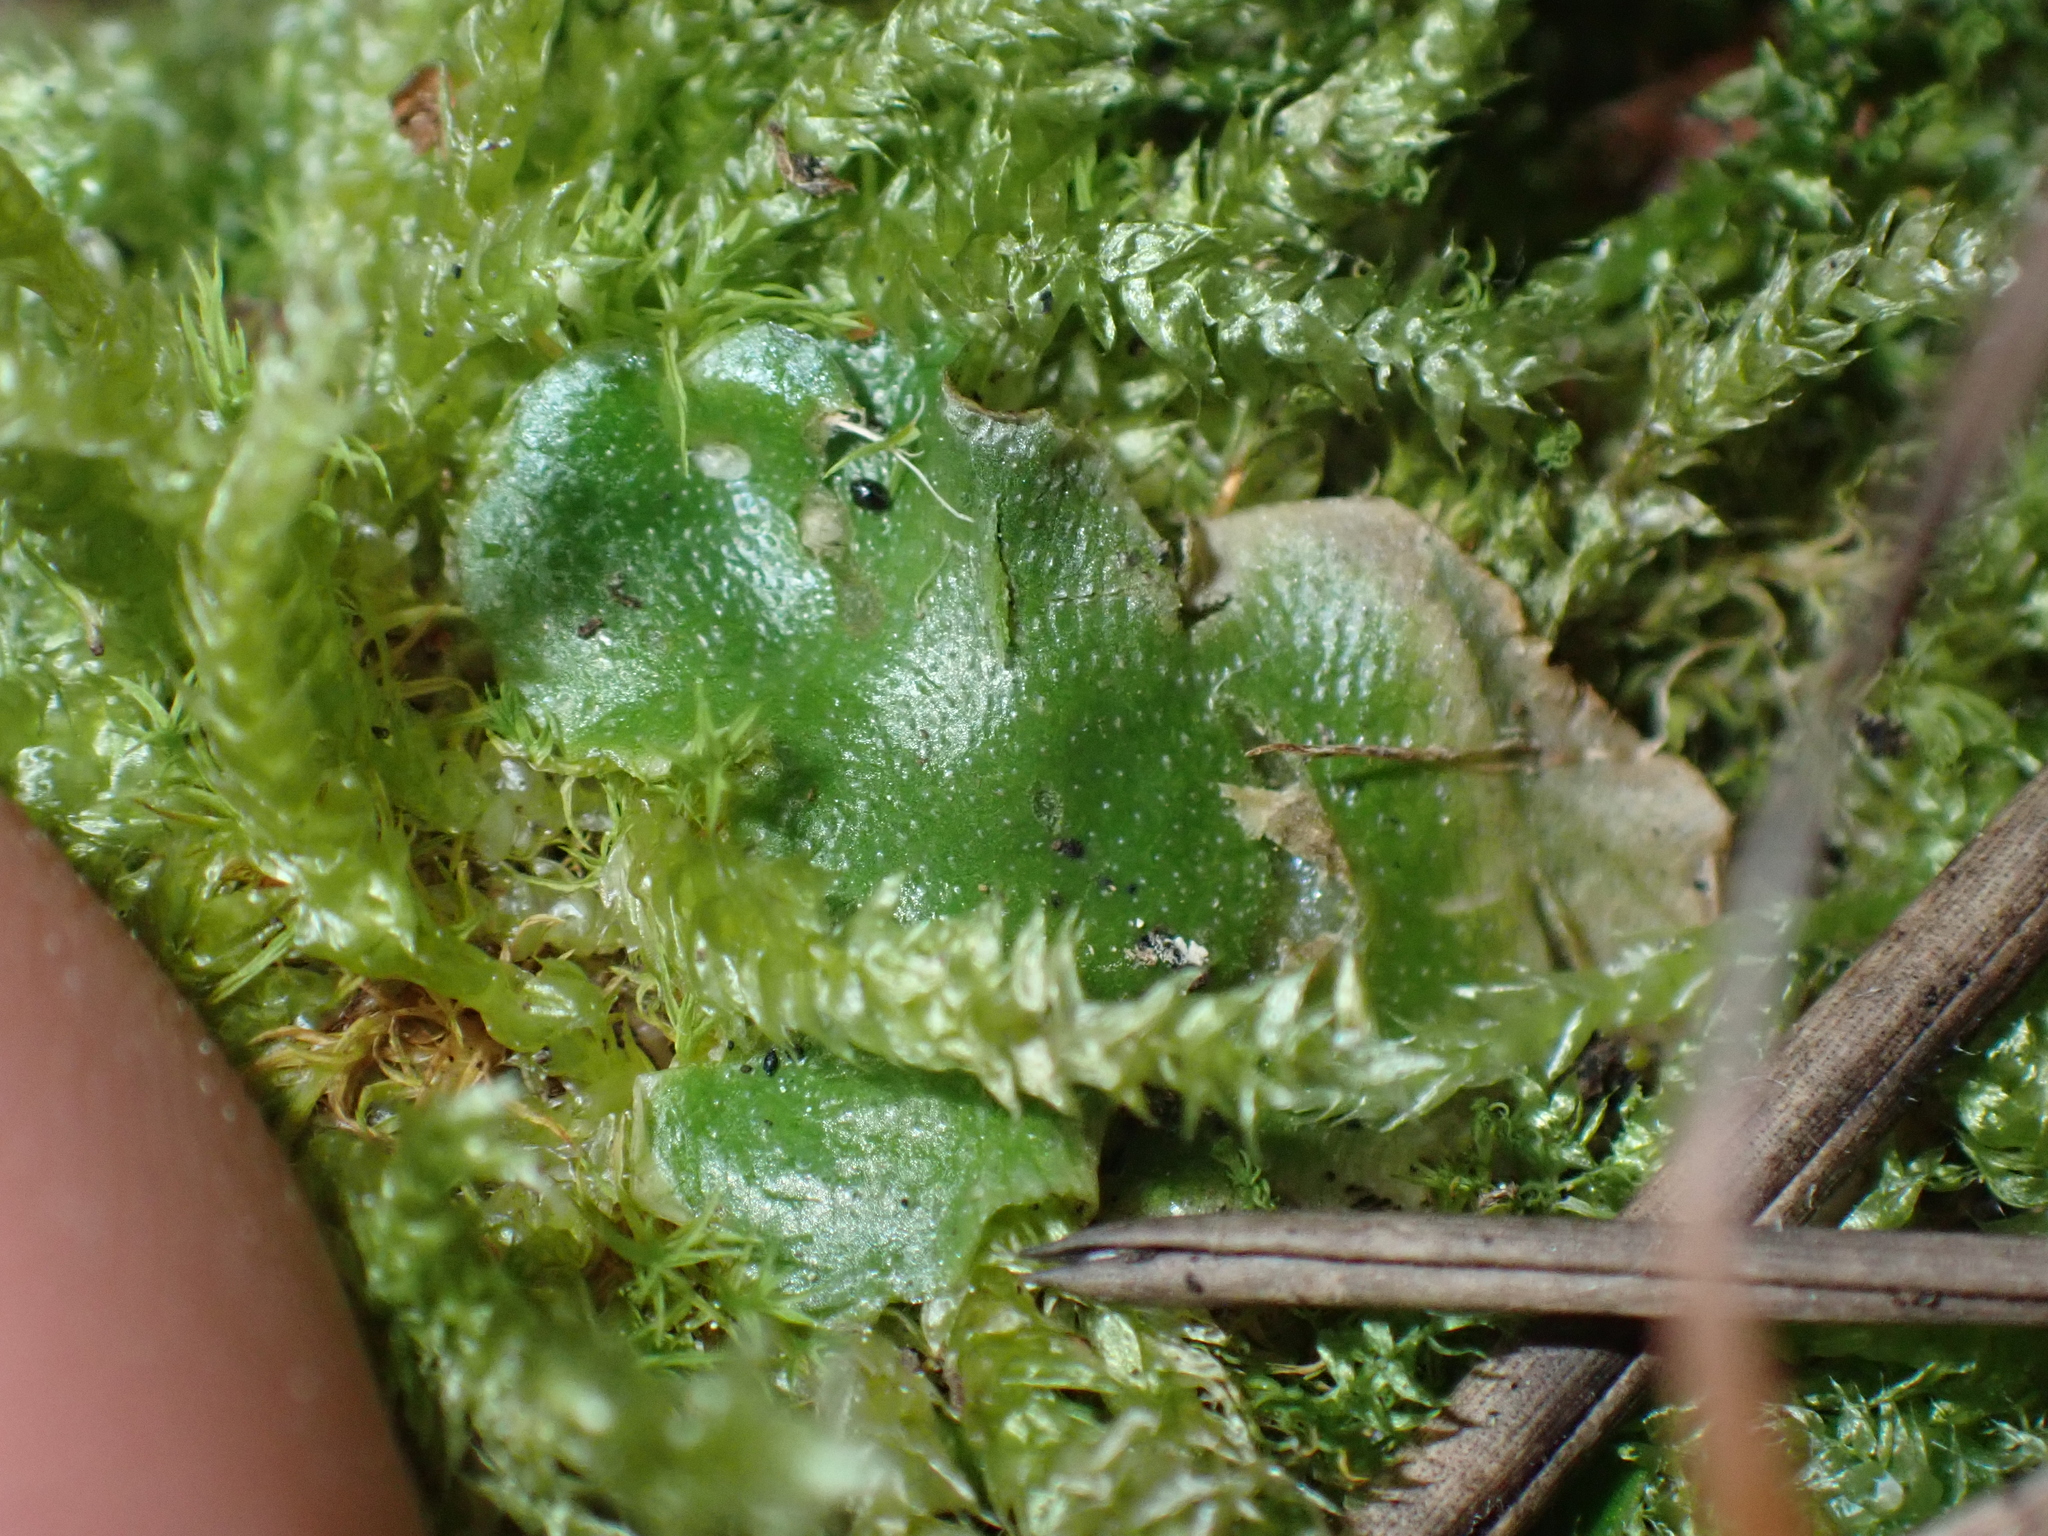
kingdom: Plantae
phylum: Marchantiophyta
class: Marchantiopsida
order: Lunulariales
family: Lunulariaceae
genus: Lunularia
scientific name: Lunularia cruciata
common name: Crescent-cup liverwort
